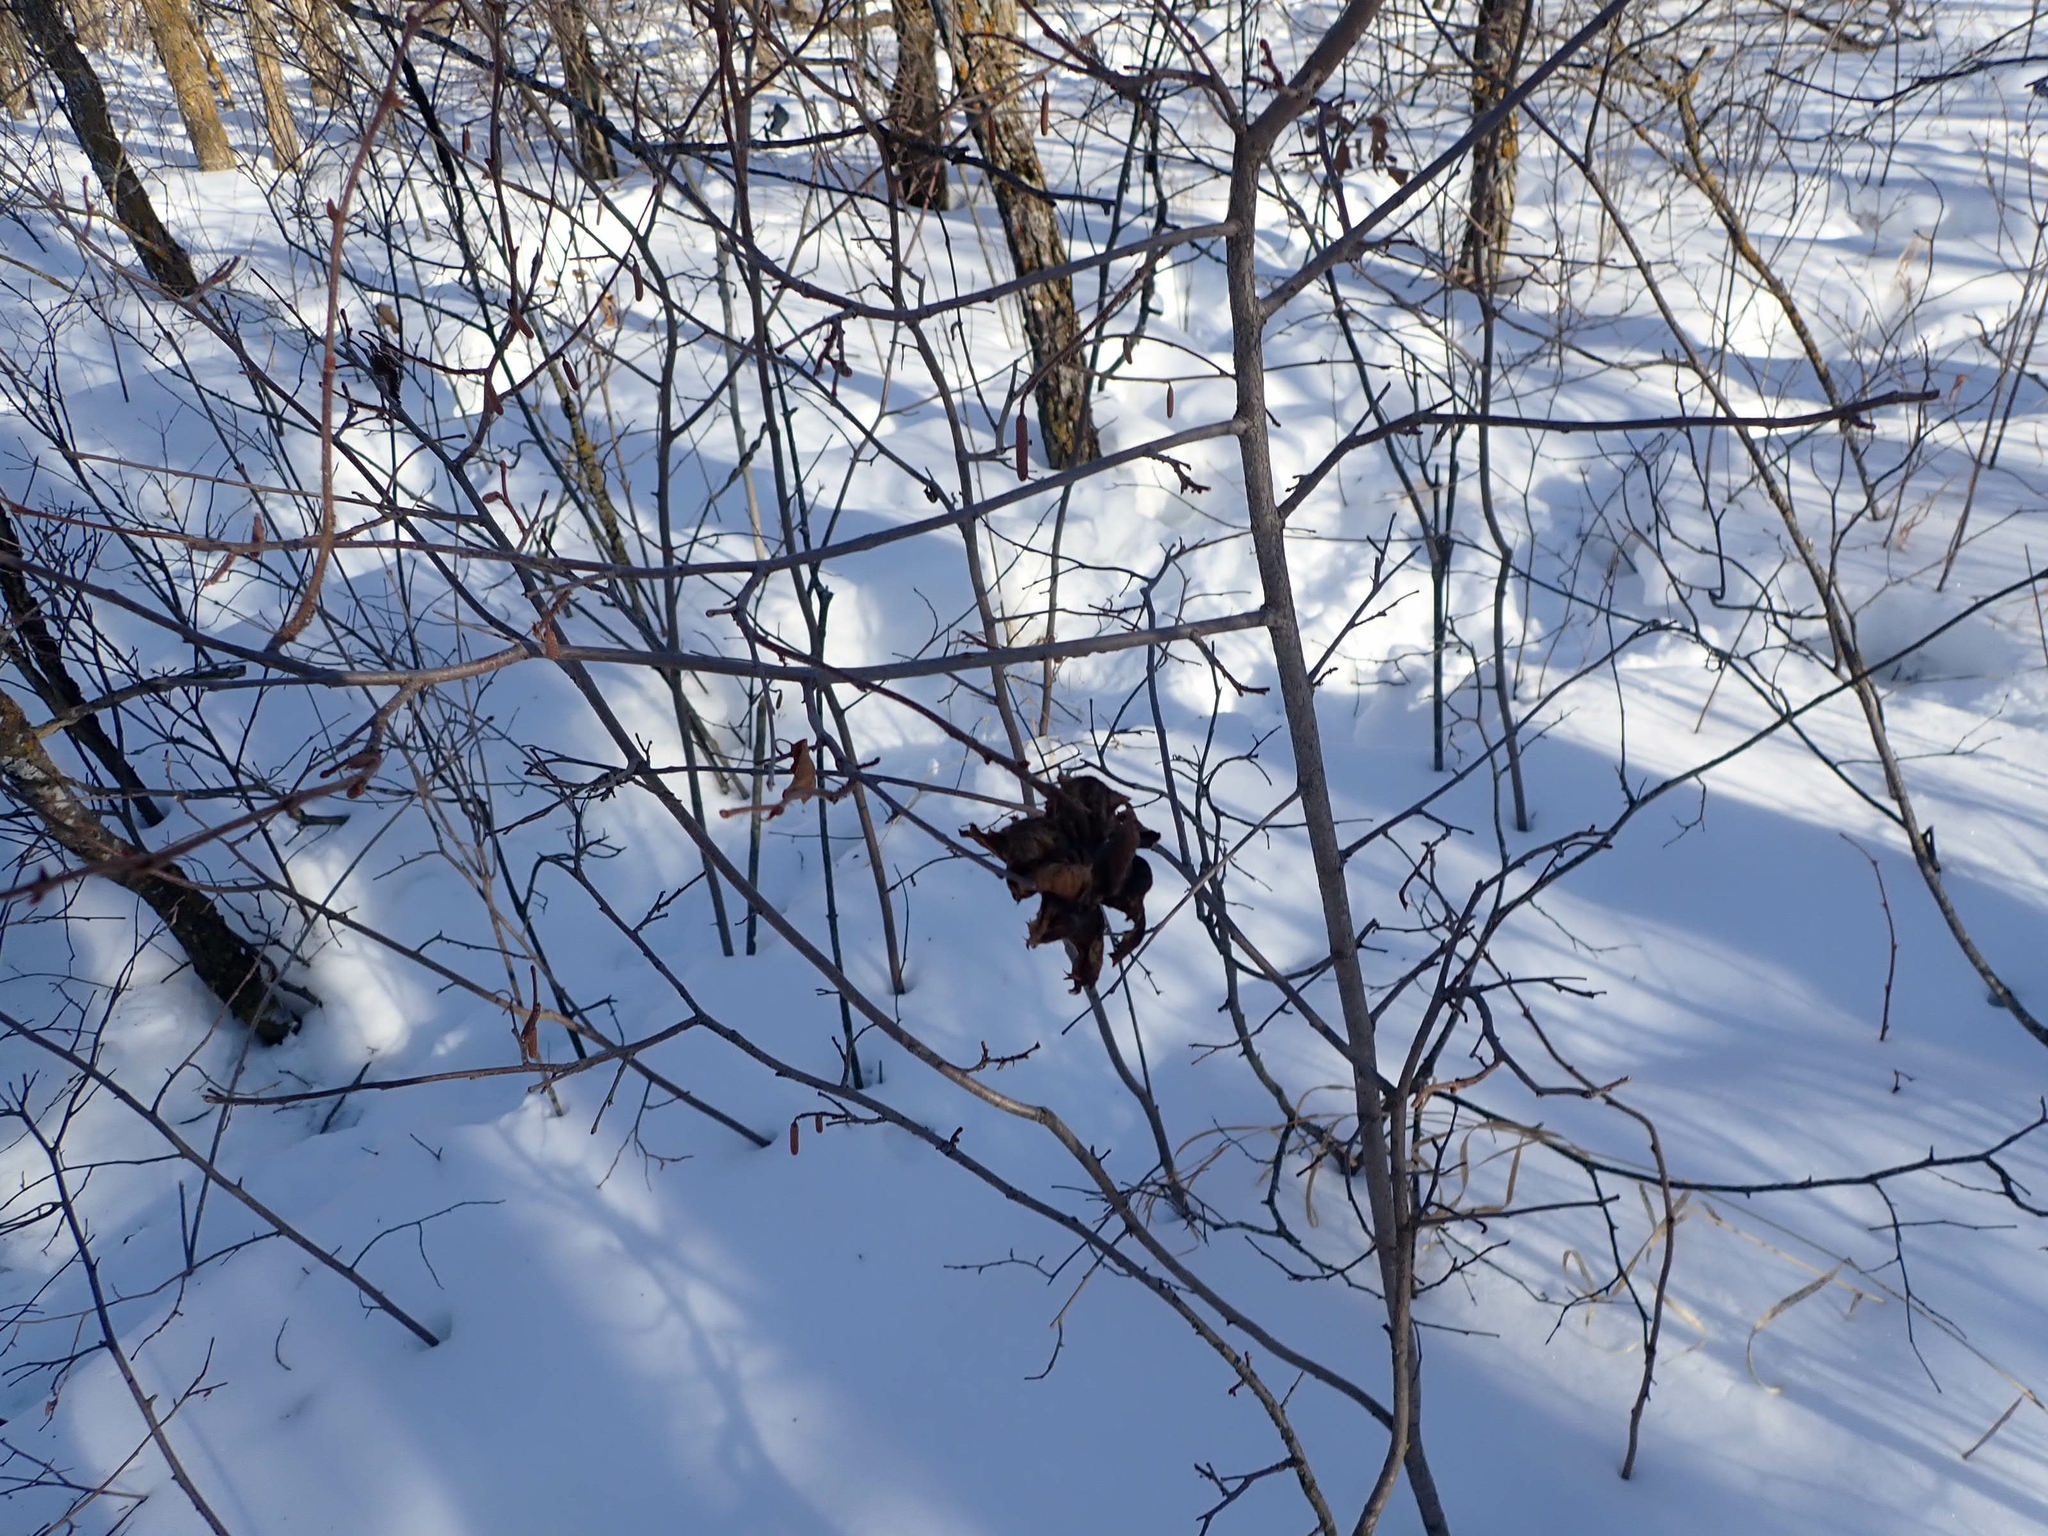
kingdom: Plantae
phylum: Tracheophyta
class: Magnoliopsida
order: Fagales
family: Betulaceae
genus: Corylus
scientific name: Corylus americana
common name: American hazel
